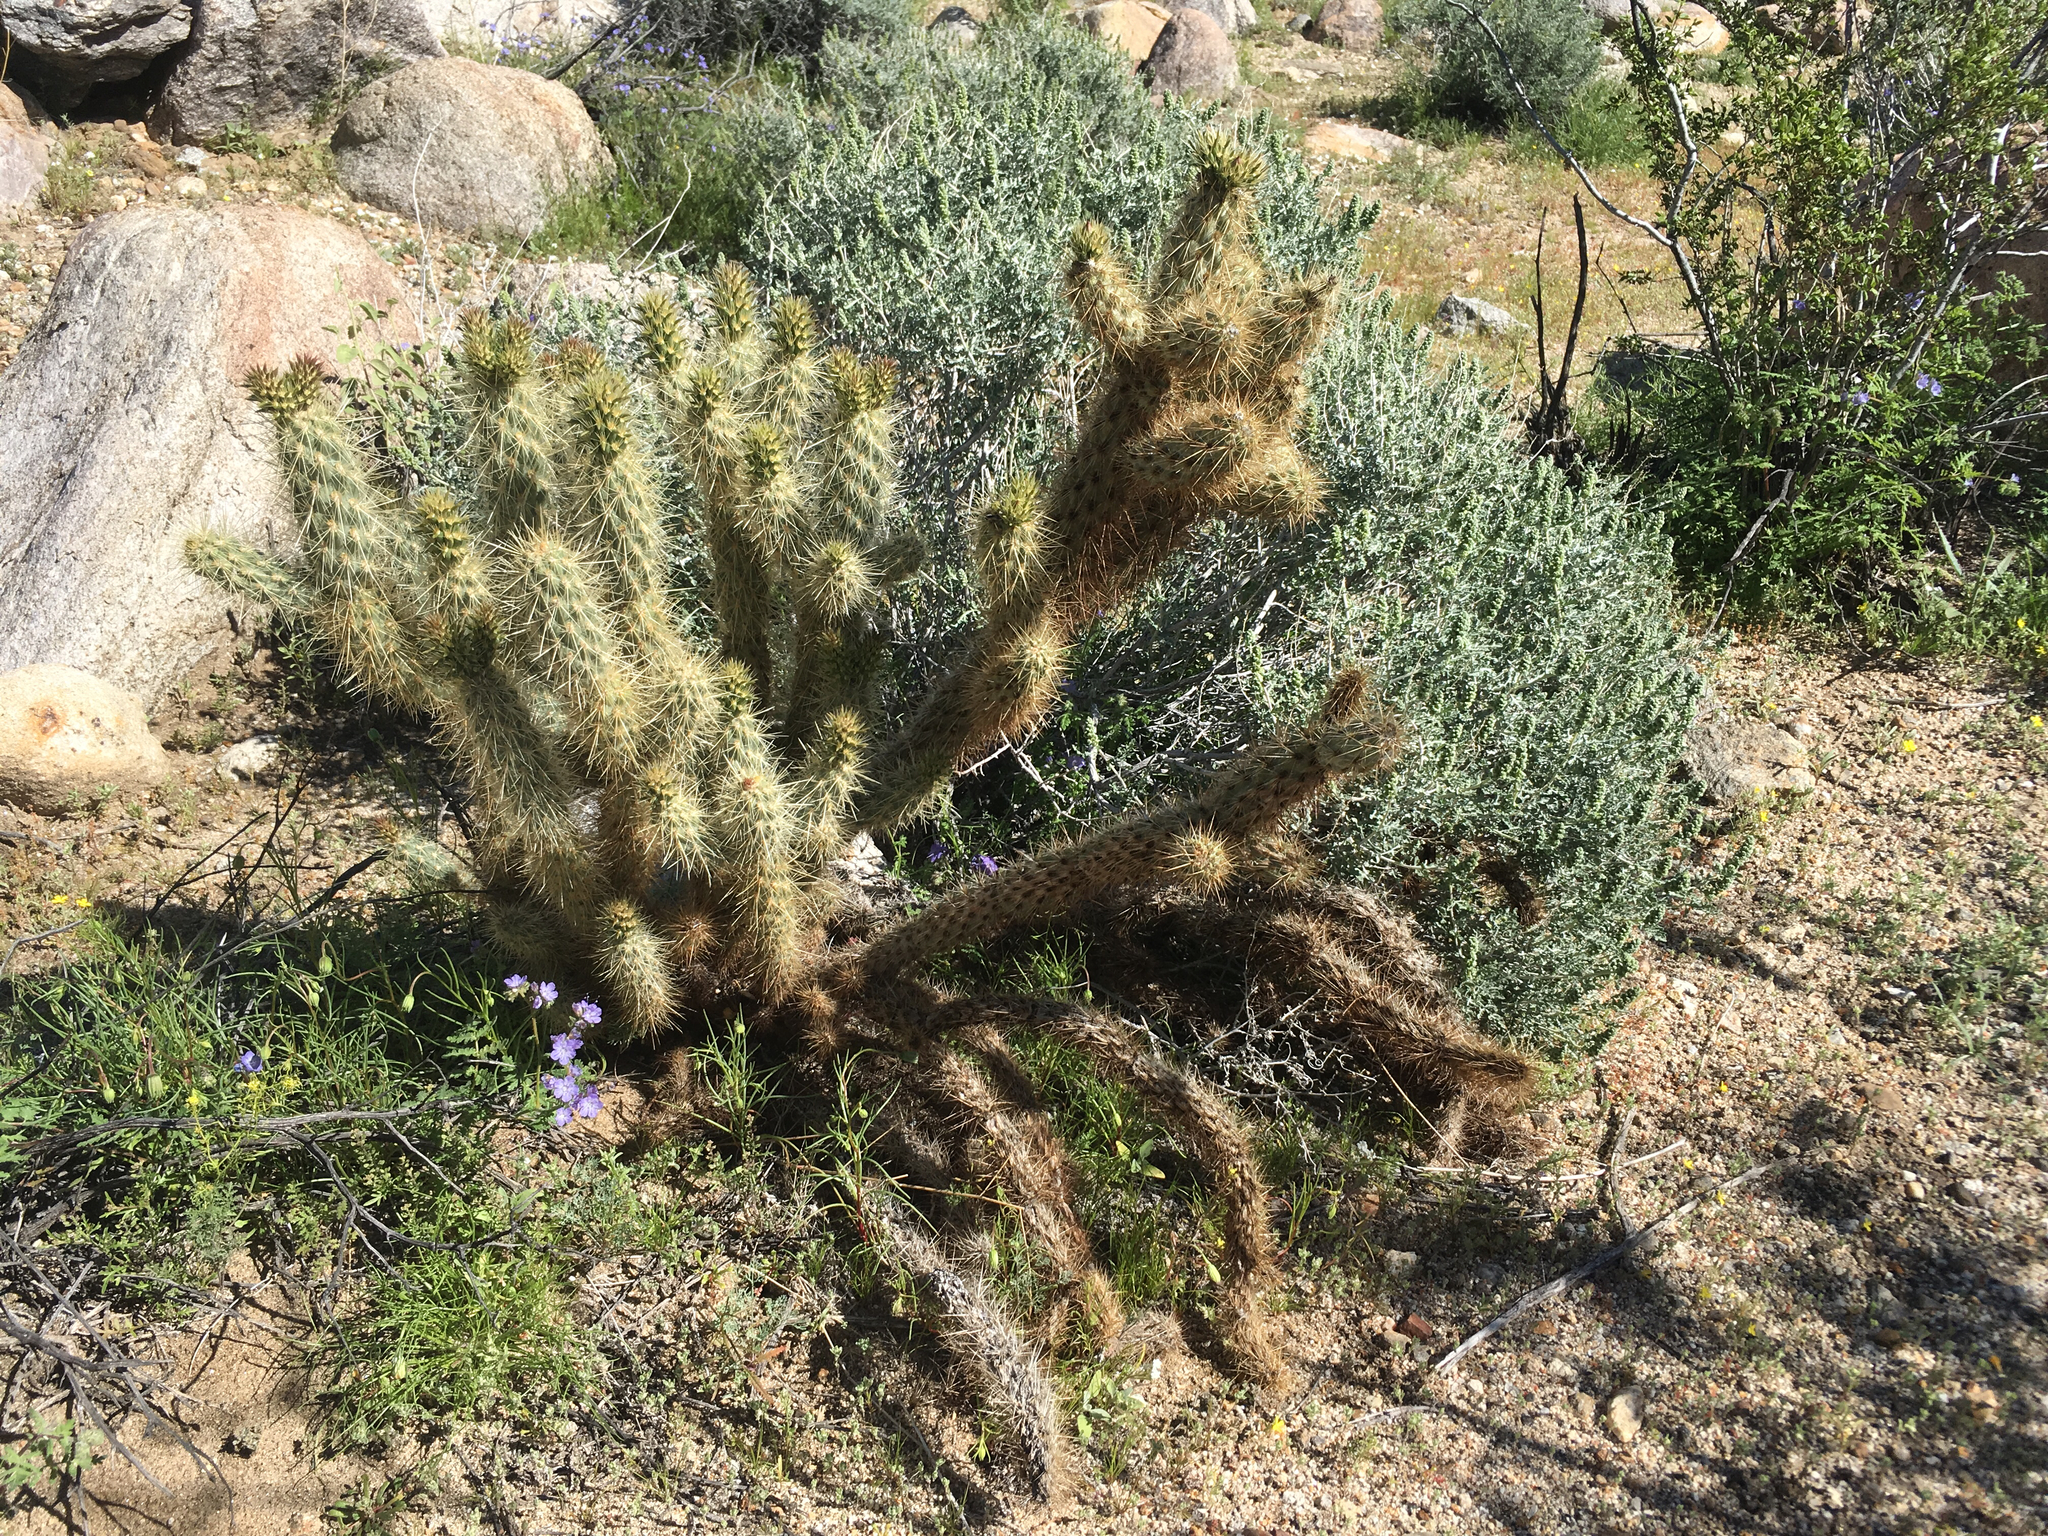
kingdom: Plantae
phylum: Tracheophyta
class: Magnoliopsida
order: Caryophyllales
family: Cactaceae
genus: Cylindropuntia
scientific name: Cylindropuntia ganderi
